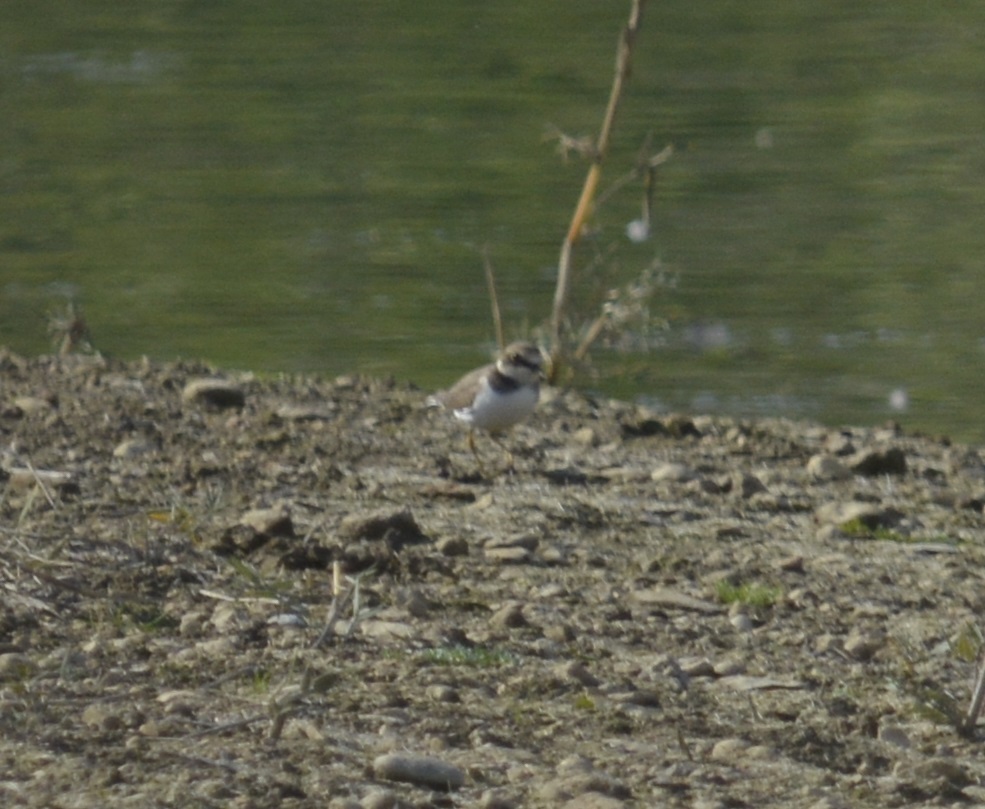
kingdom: Animalia
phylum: Chordata
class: Aves
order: Charadriiformes
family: Charadriidae
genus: Charadrius
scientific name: Charadrius hiaticula
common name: Common ringed plover
